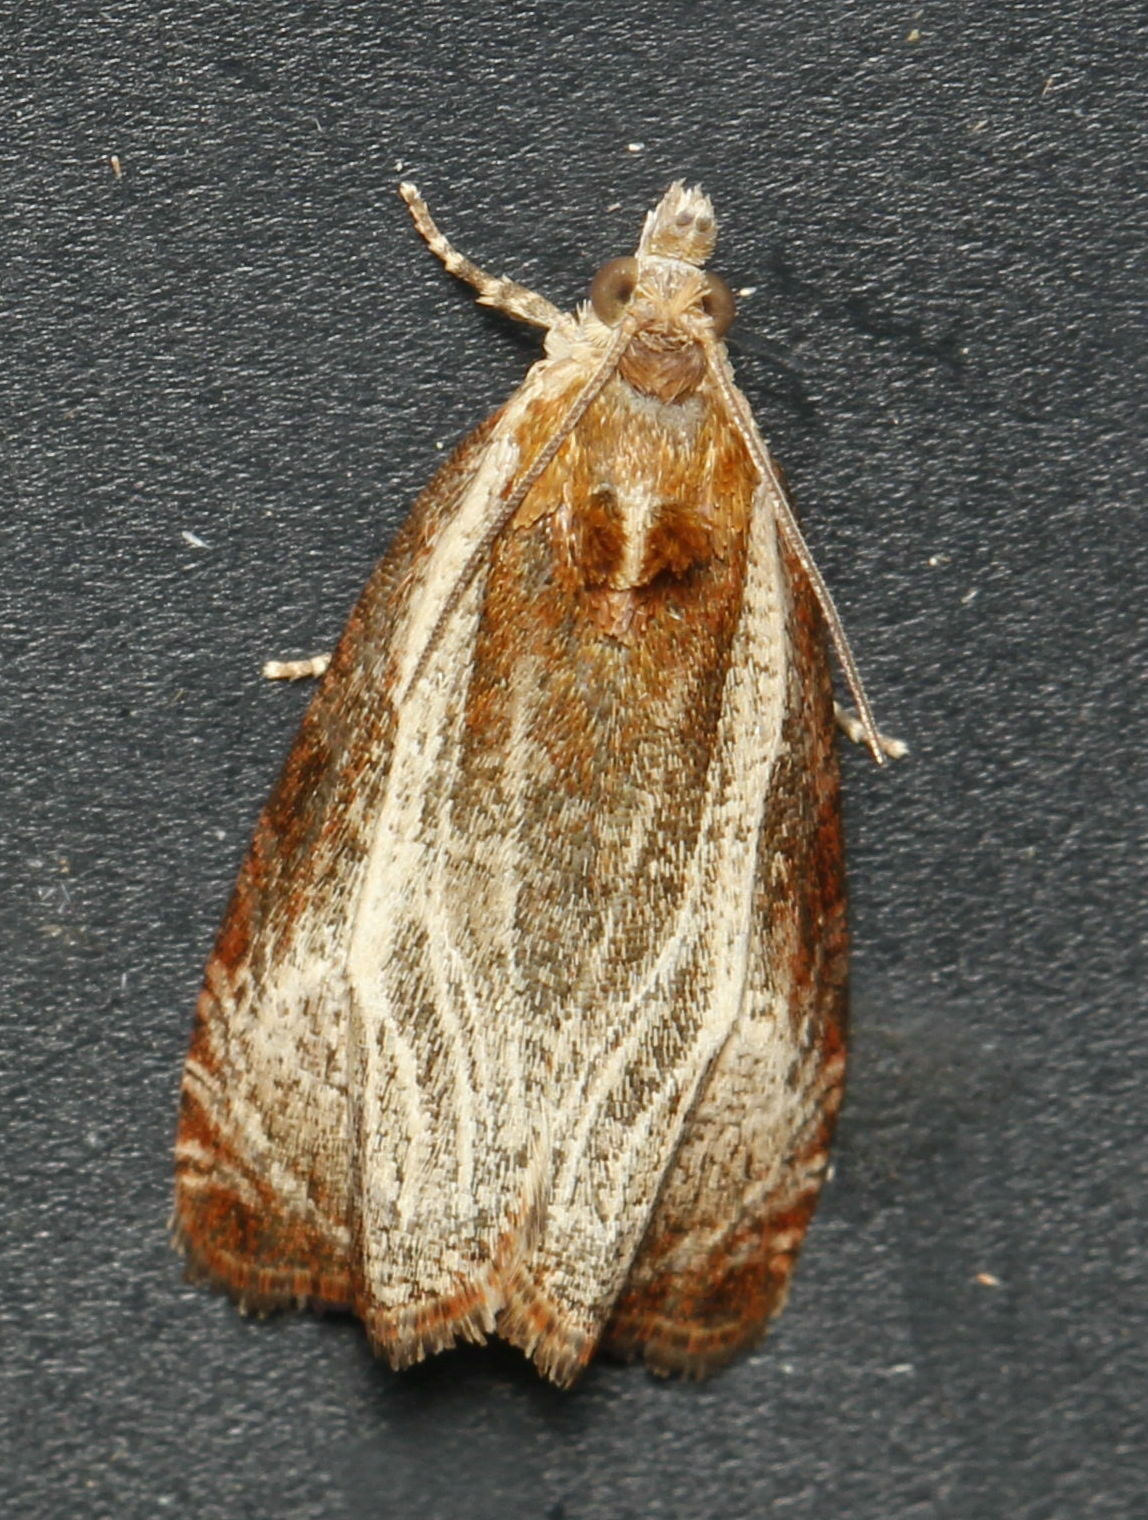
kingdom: Animalia
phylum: Arthropoda
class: Insecta
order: Lepidoptera
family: Tortricidae
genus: Olethreutes
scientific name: Olethreutes quadrifidum
